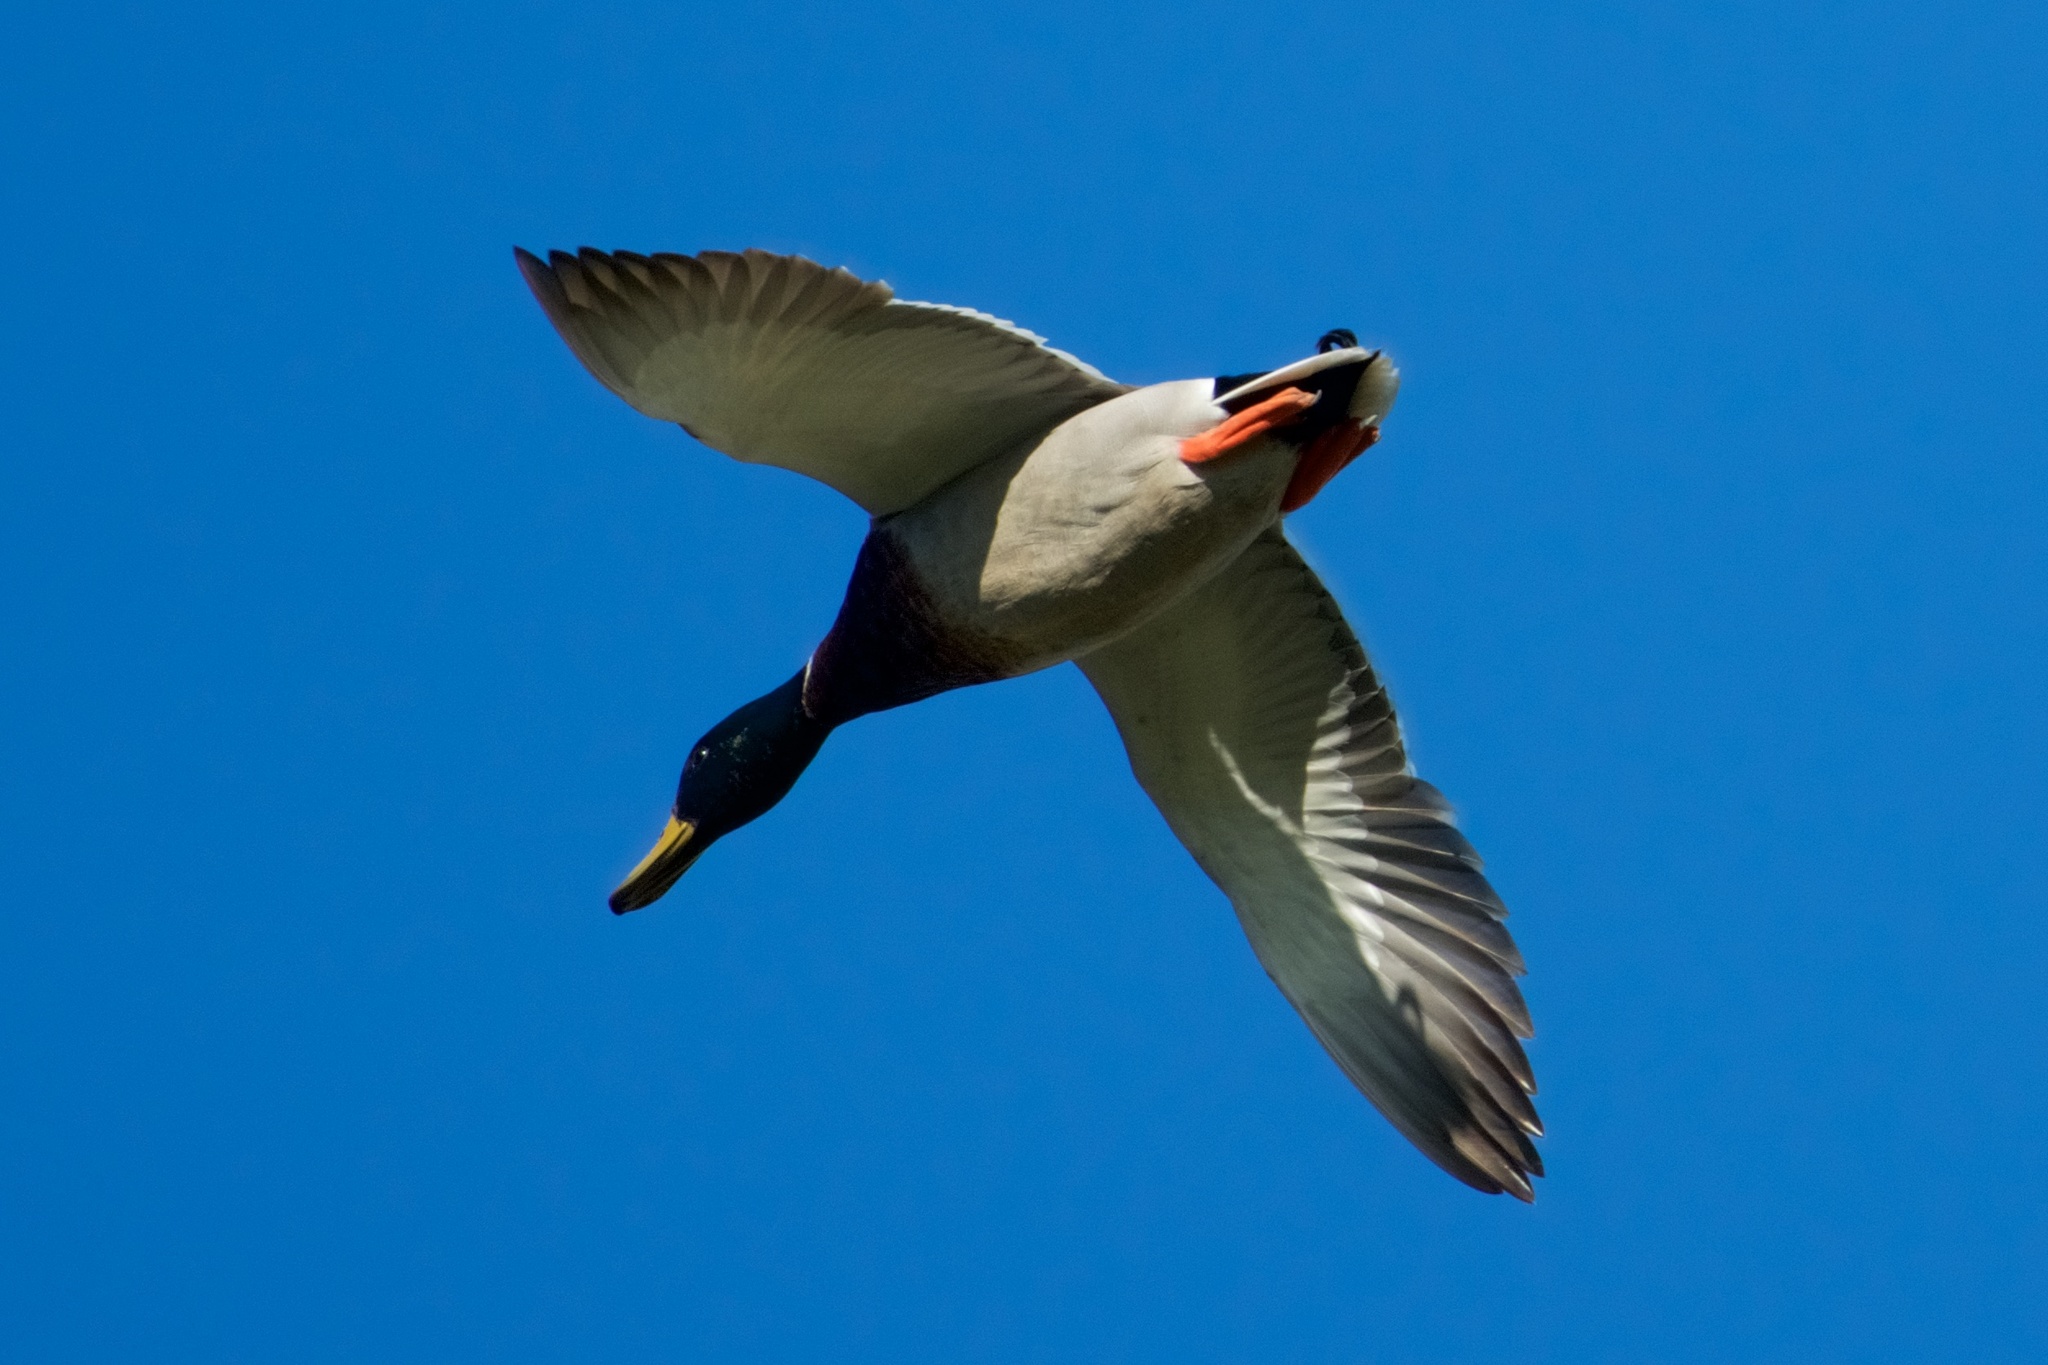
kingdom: Animalia
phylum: Chordata
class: Aves
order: Anseriformes
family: Anatidae
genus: Anas
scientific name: Anas platyrhynchos
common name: Mallard
